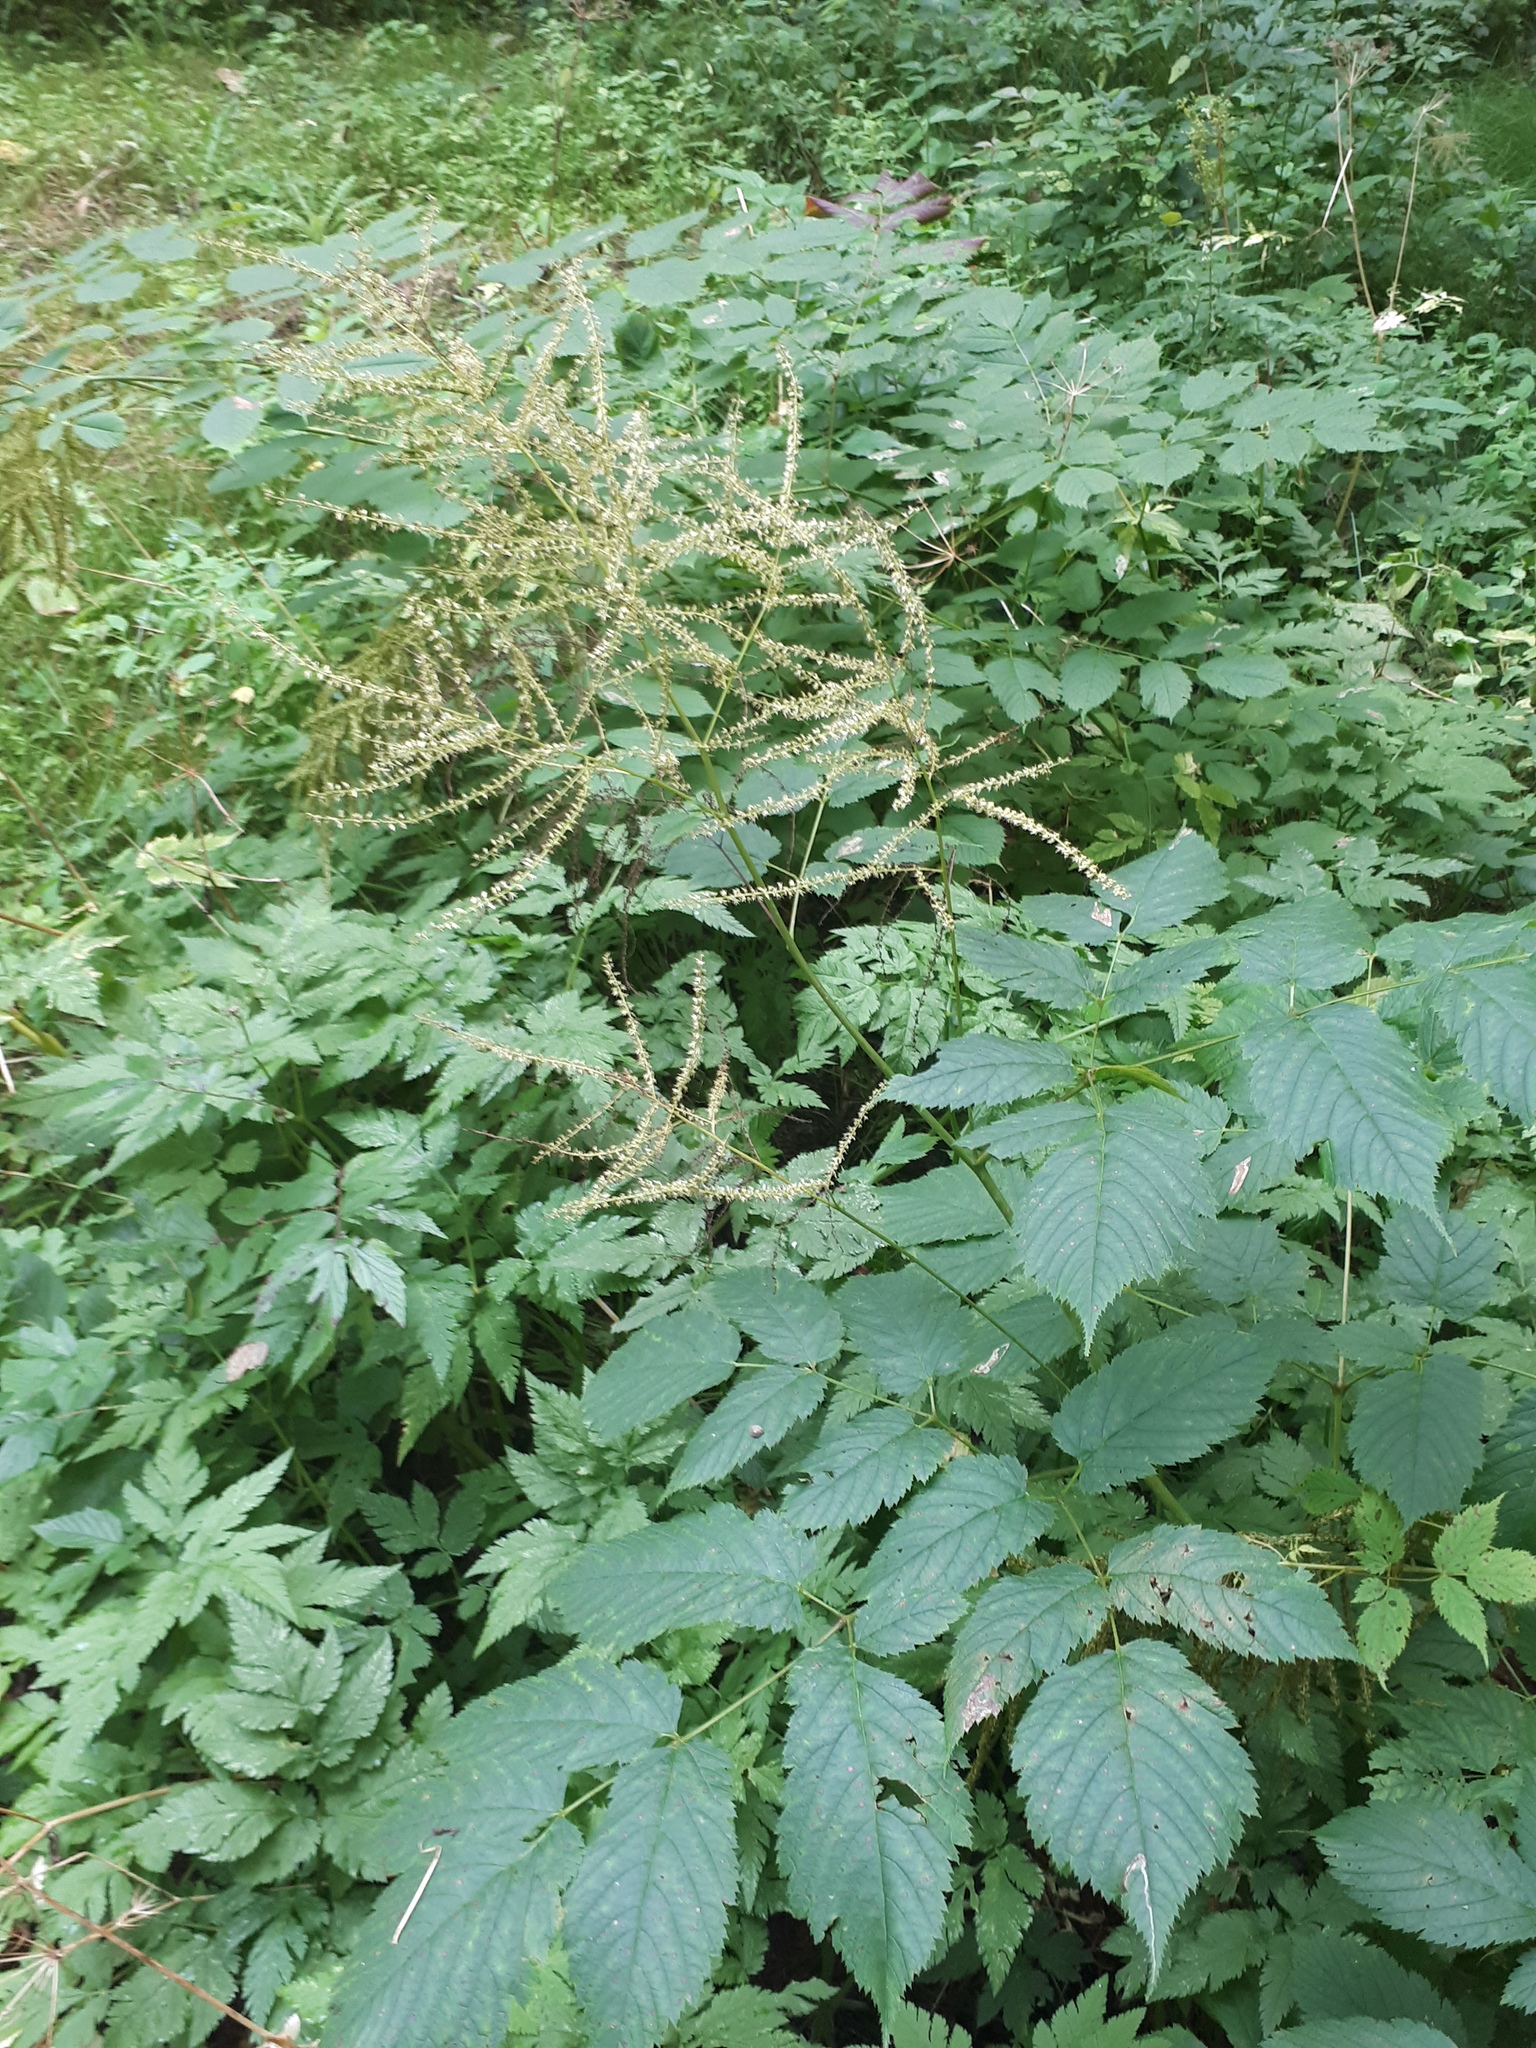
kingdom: Plantae
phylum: Tracheophyta
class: Magnoliopsida
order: Rosales
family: Rosaceae
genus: Aruncus
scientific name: Aruncus dioicus
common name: Buck's-beard
